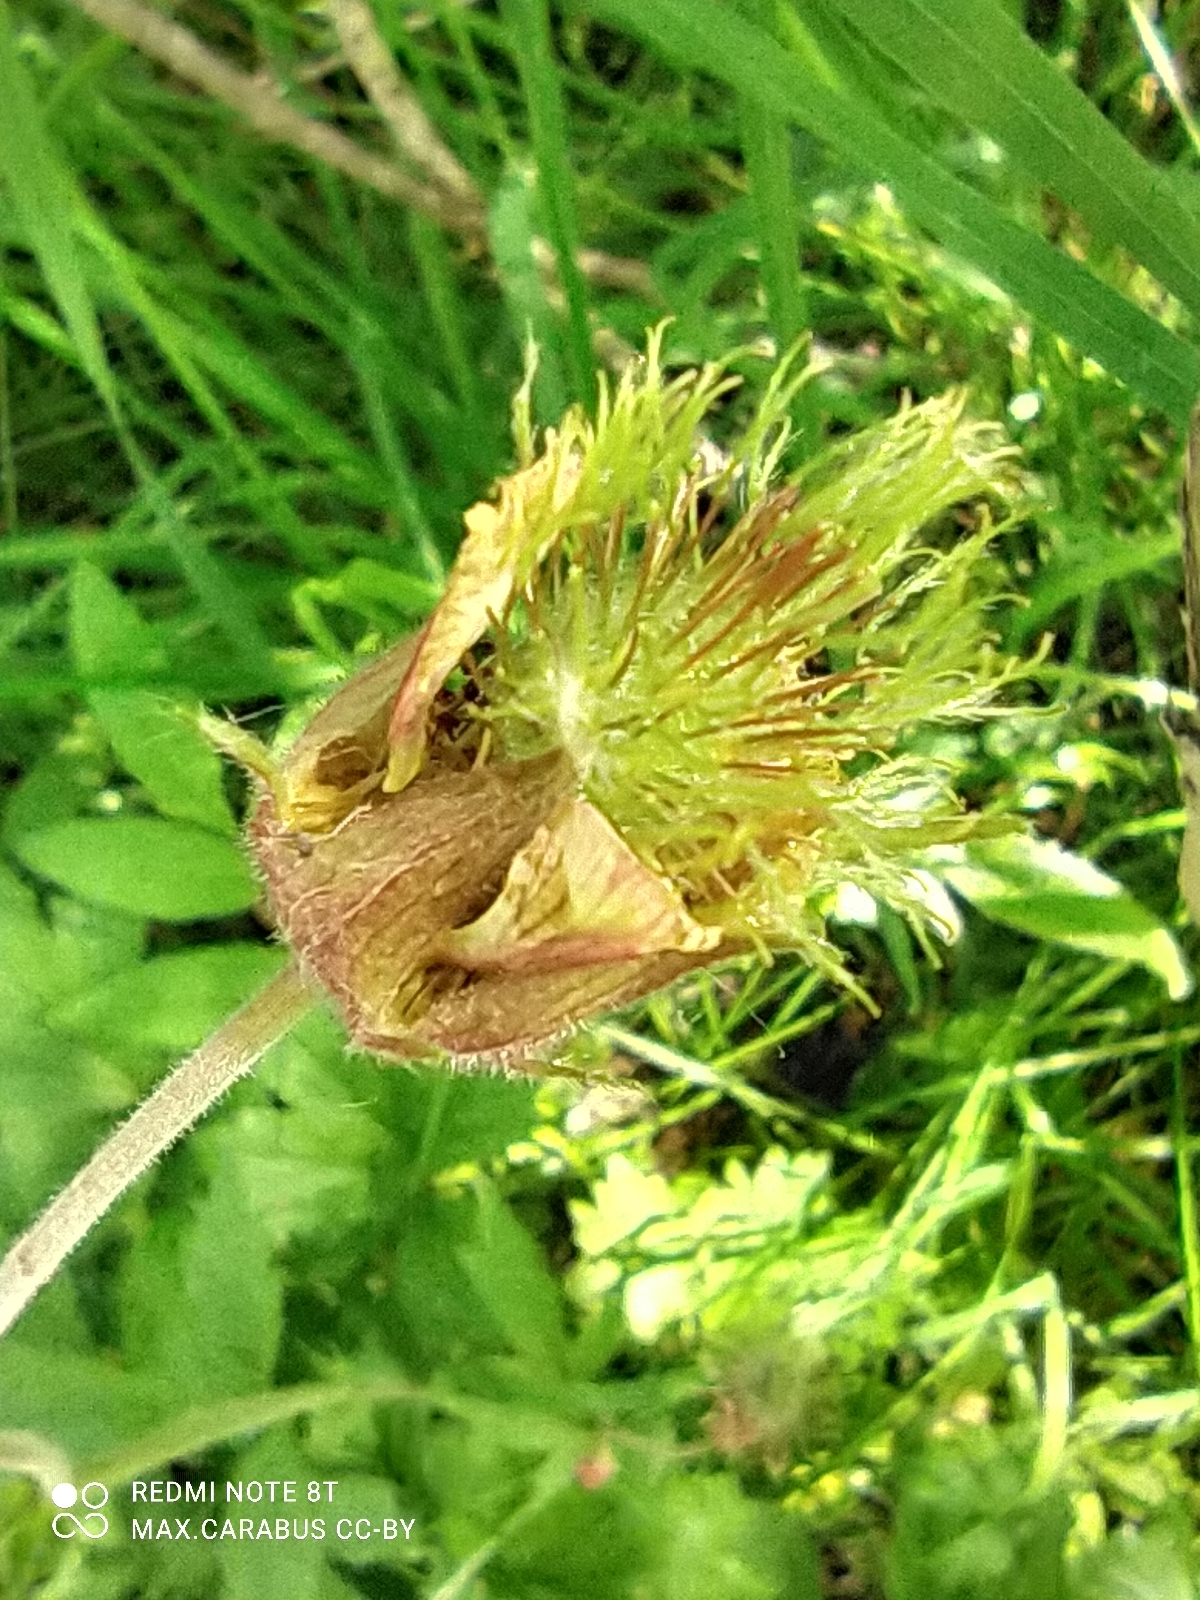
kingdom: Plantae
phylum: Tracheophyta
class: Magnoliopsida
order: Rosales
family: Rosaceae
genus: Geum
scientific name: Geum rivale
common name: Water avens
